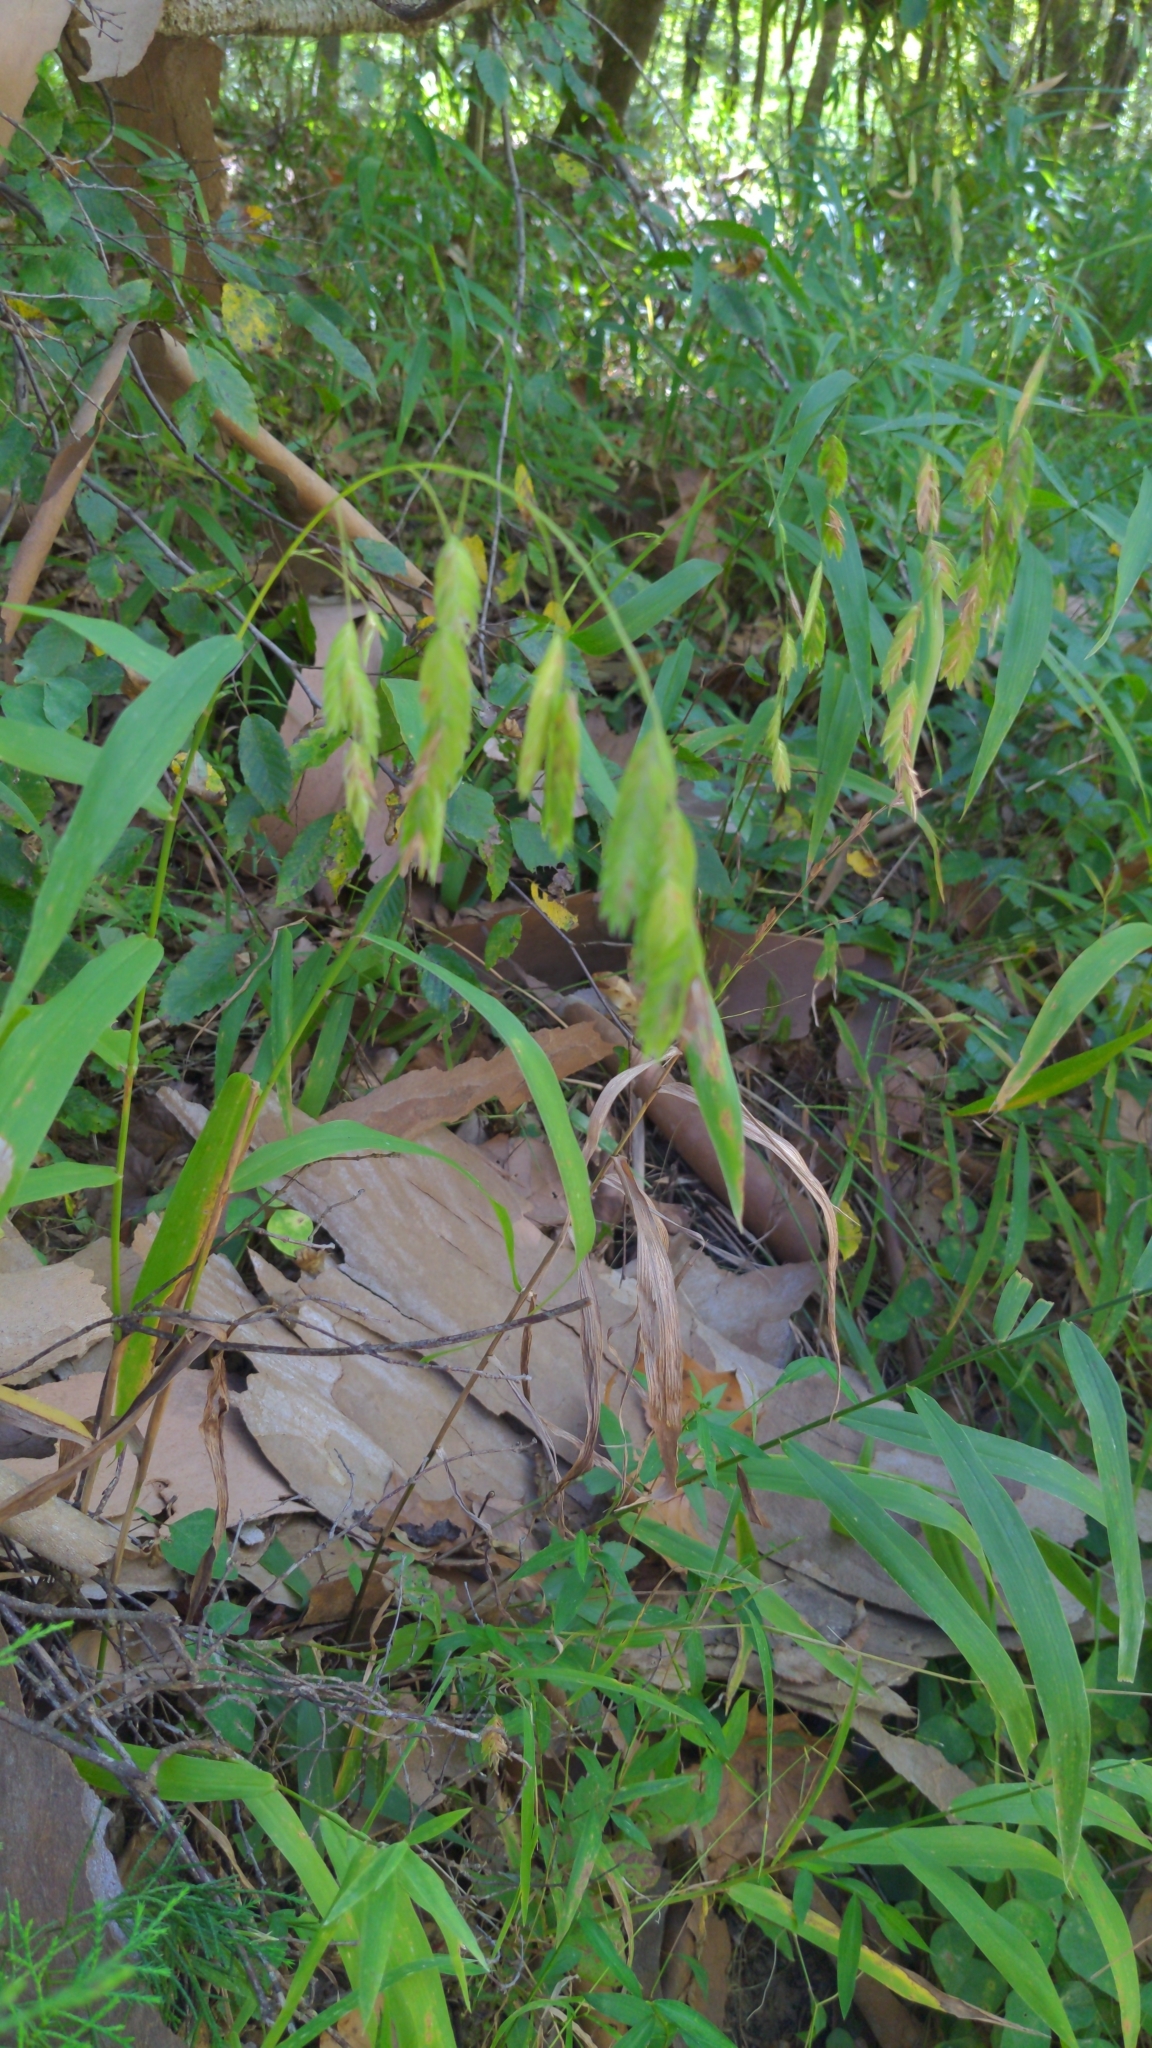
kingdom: Plantae
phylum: Tracheophyta
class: Liliopsida
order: Poales
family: Poaceae
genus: Chasmanthium
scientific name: Chasmanthium latifolium
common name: Broad-leaved chasmanthium
